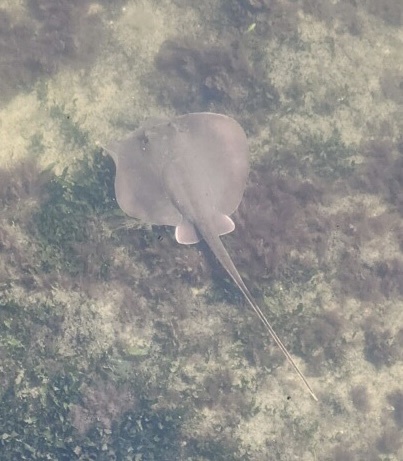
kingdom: Animalia
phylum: Chordata
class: Elasmobranchii
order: Myliobatiformes
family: Dasyatidae
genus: Hypanus
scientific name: Hypanus sabinus
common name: Atlantic stingray
